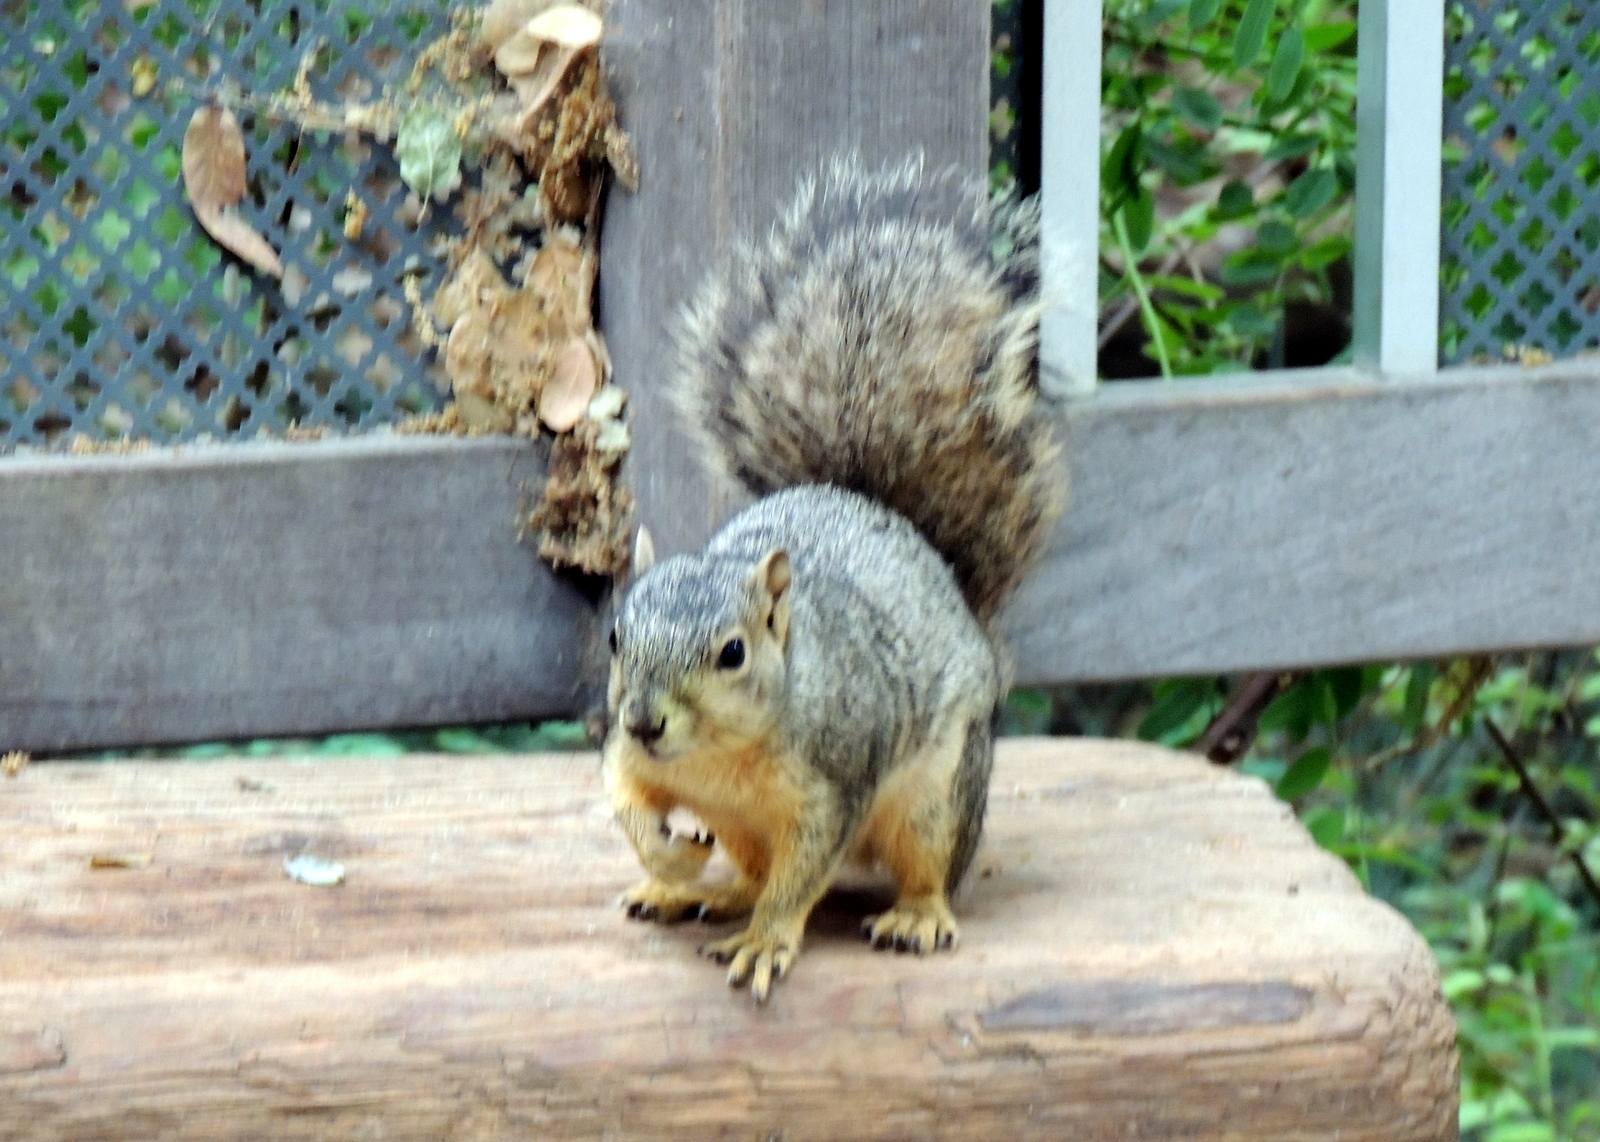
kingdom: Animalia
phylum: Chordata
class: Mammalia
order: Rodentia
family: Sciuridae
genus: Sciurus
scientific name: Sciurus niger
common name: Fox squirrel
